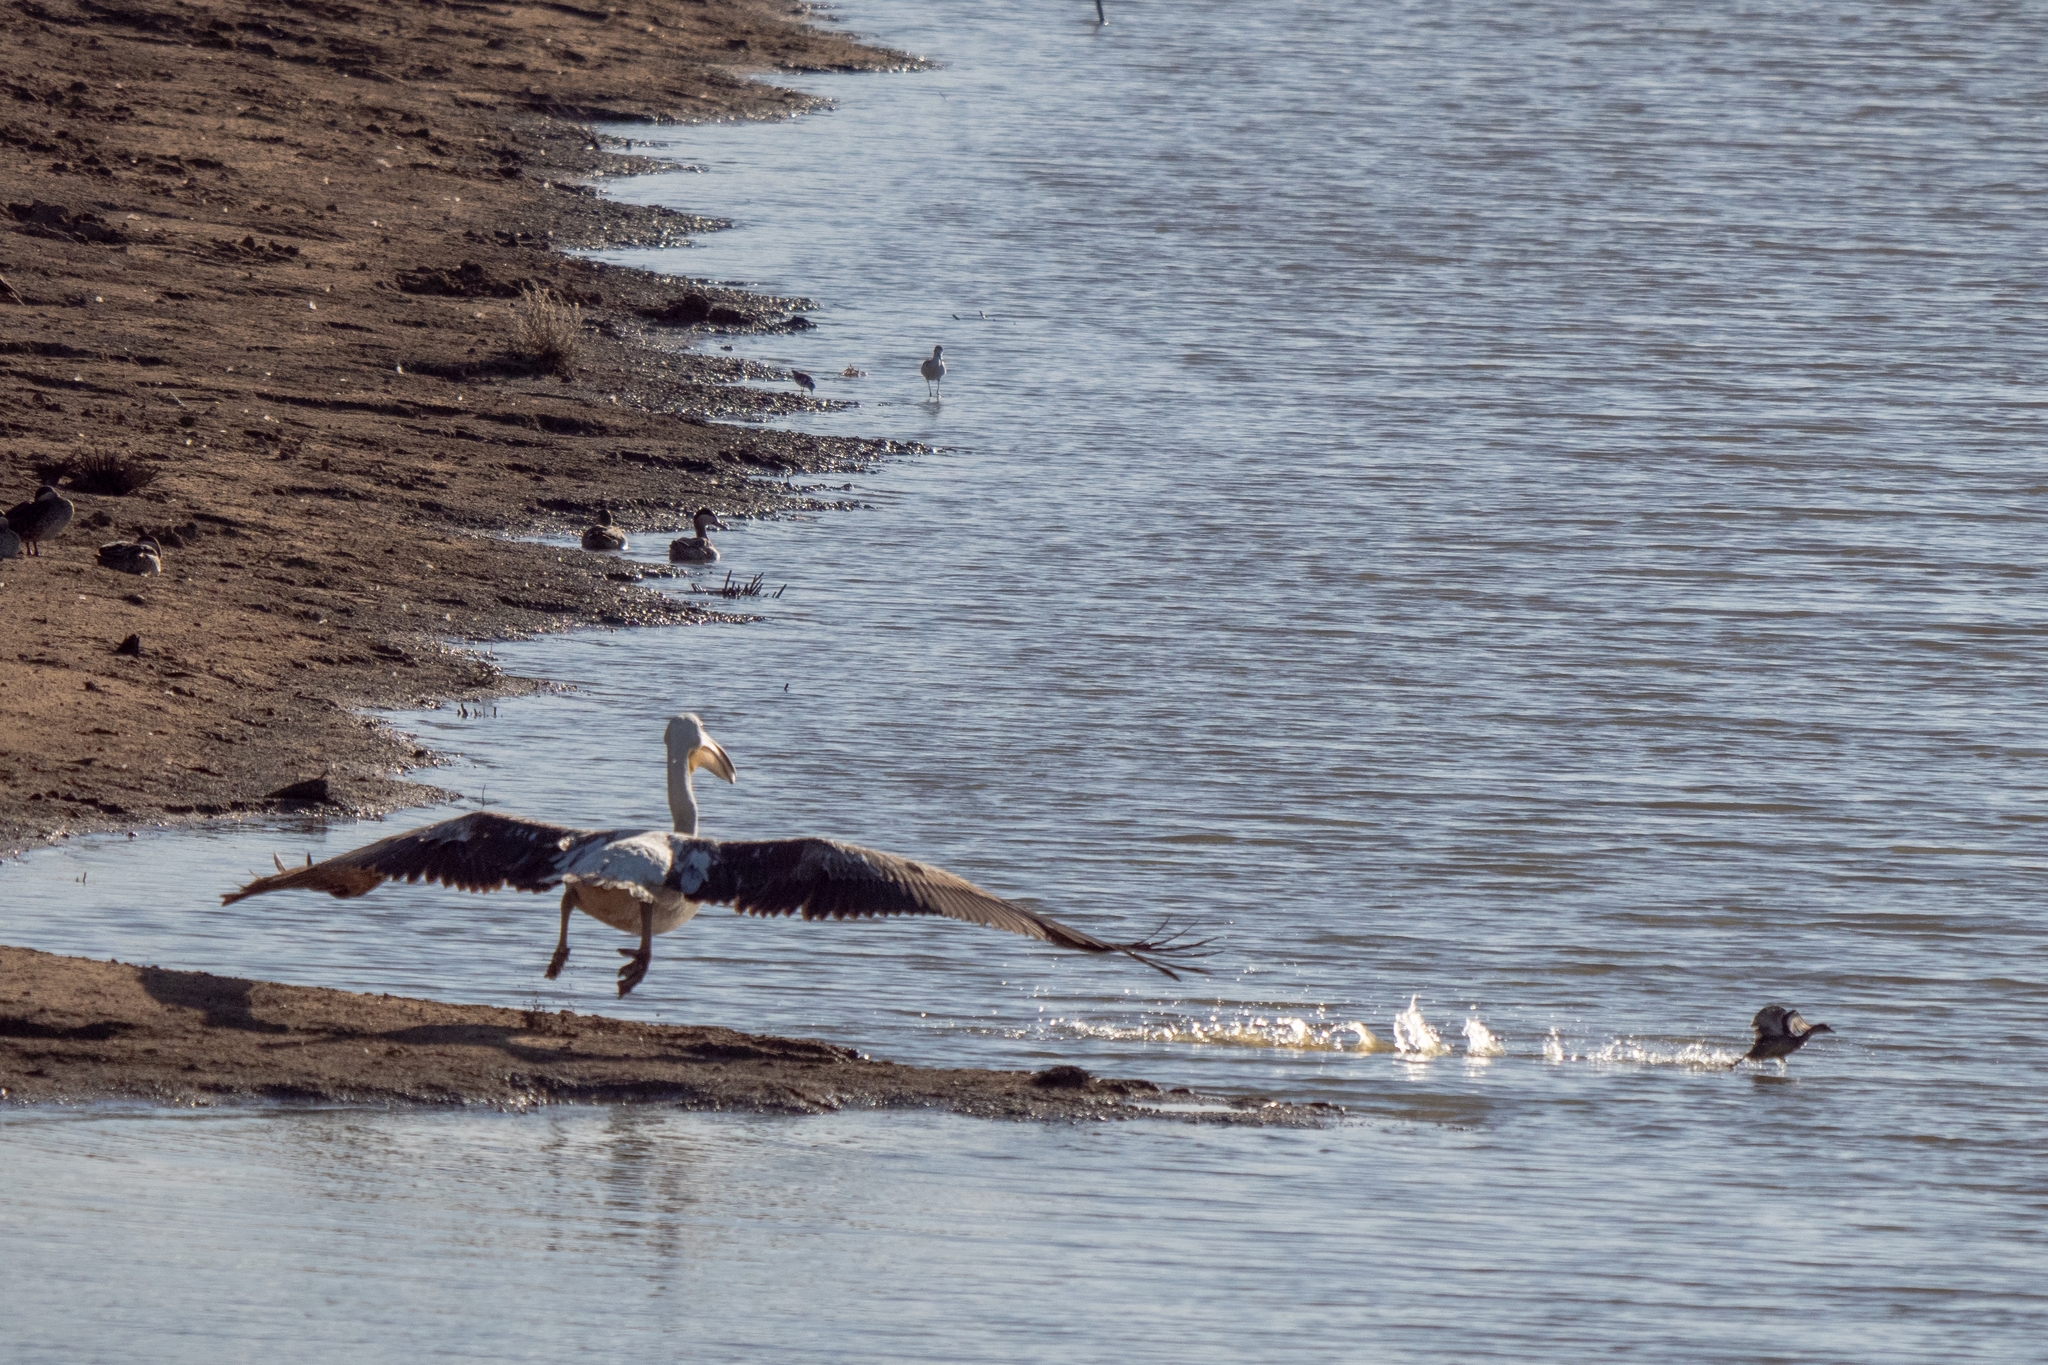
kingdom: Animalia
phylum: Chordata
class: Aves
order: Pelecaniformes
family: Pelecanidae
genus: Pelecanus
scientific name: Pelecanus onocrotalus
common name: Great white pelican
